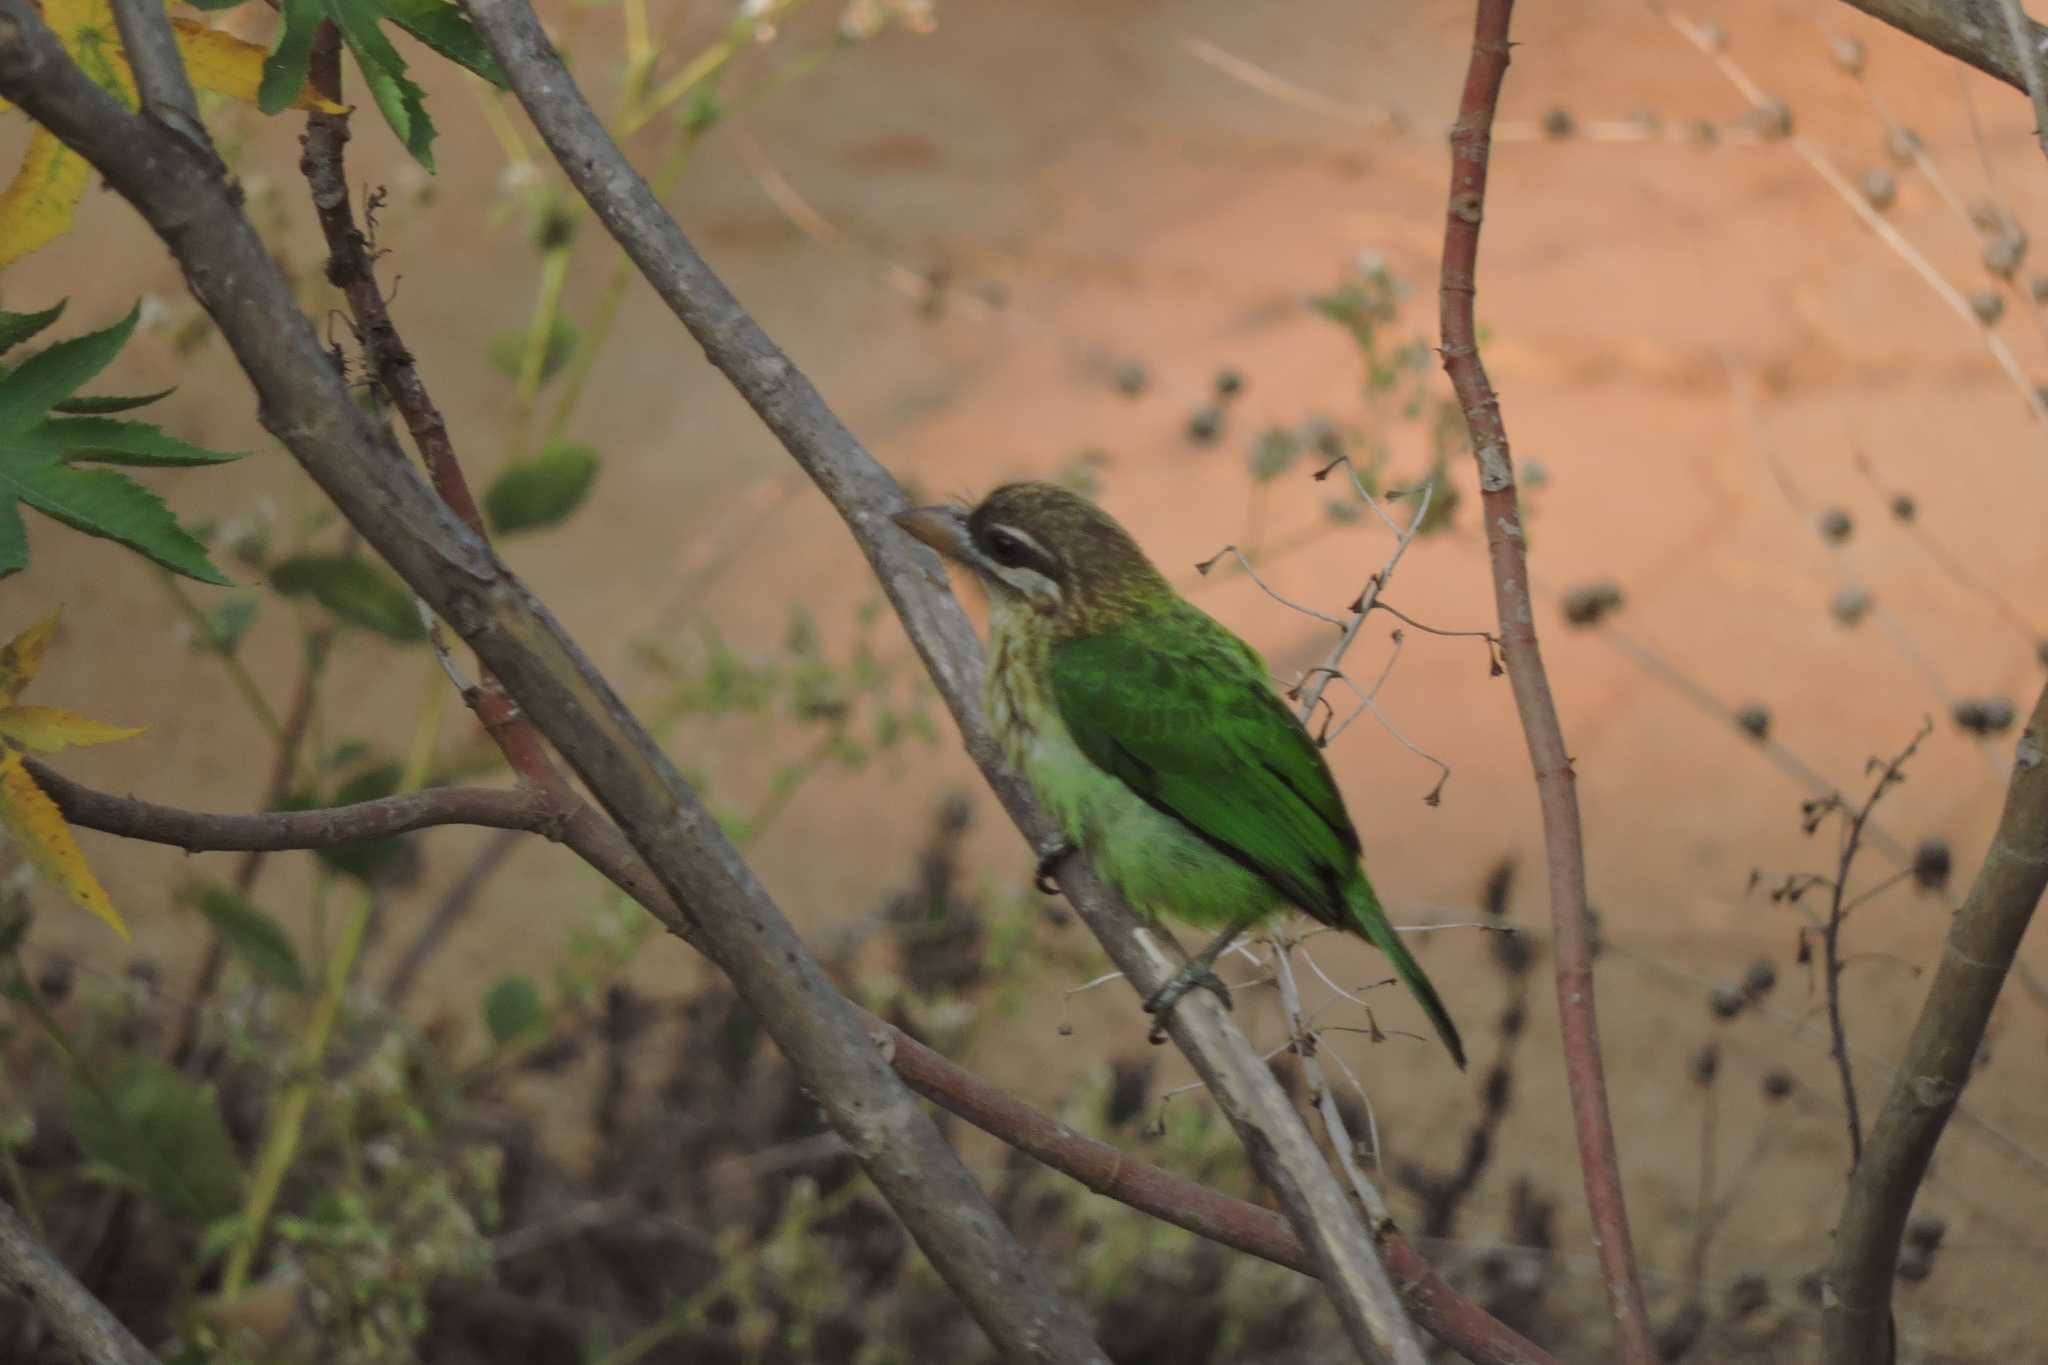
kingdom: Animalia
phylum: Chordata
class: Aves
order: Piciformes
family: Megalaimidae
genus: Psilopogon
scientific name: Psilopogon viridis
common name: White-cheeked barbet
